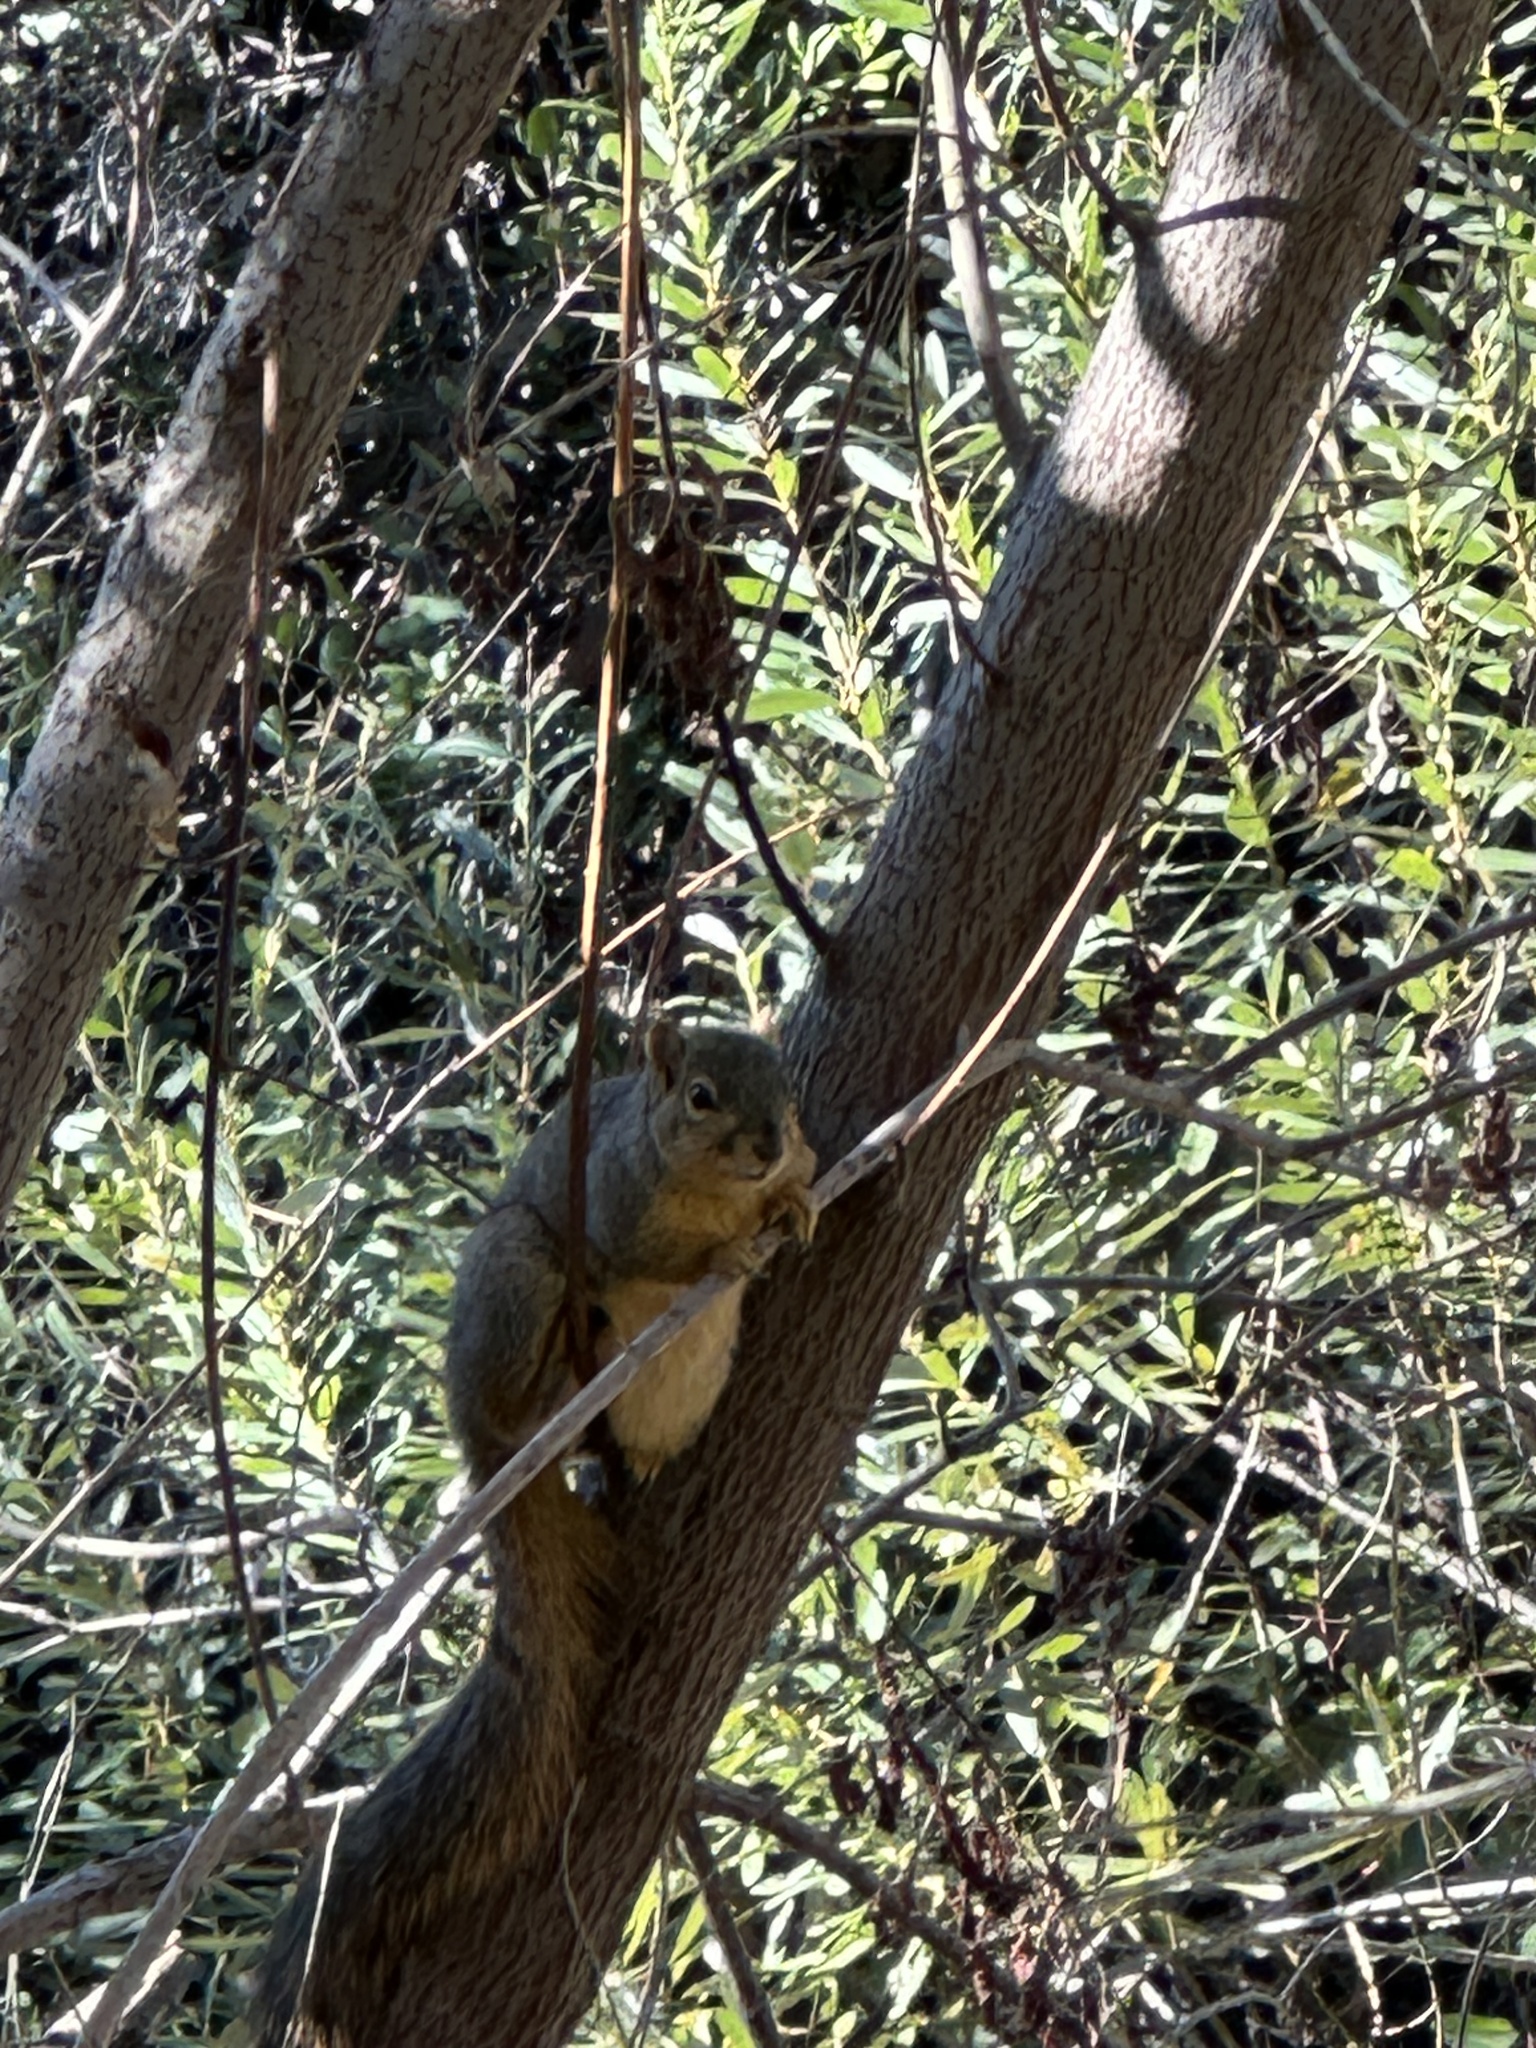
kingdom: Animalia
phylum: Chordata
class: Mammalia
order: Rodentia
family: Sciuridae
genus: Sciurus
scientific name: Sciurus niger
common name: Fox squirrel
